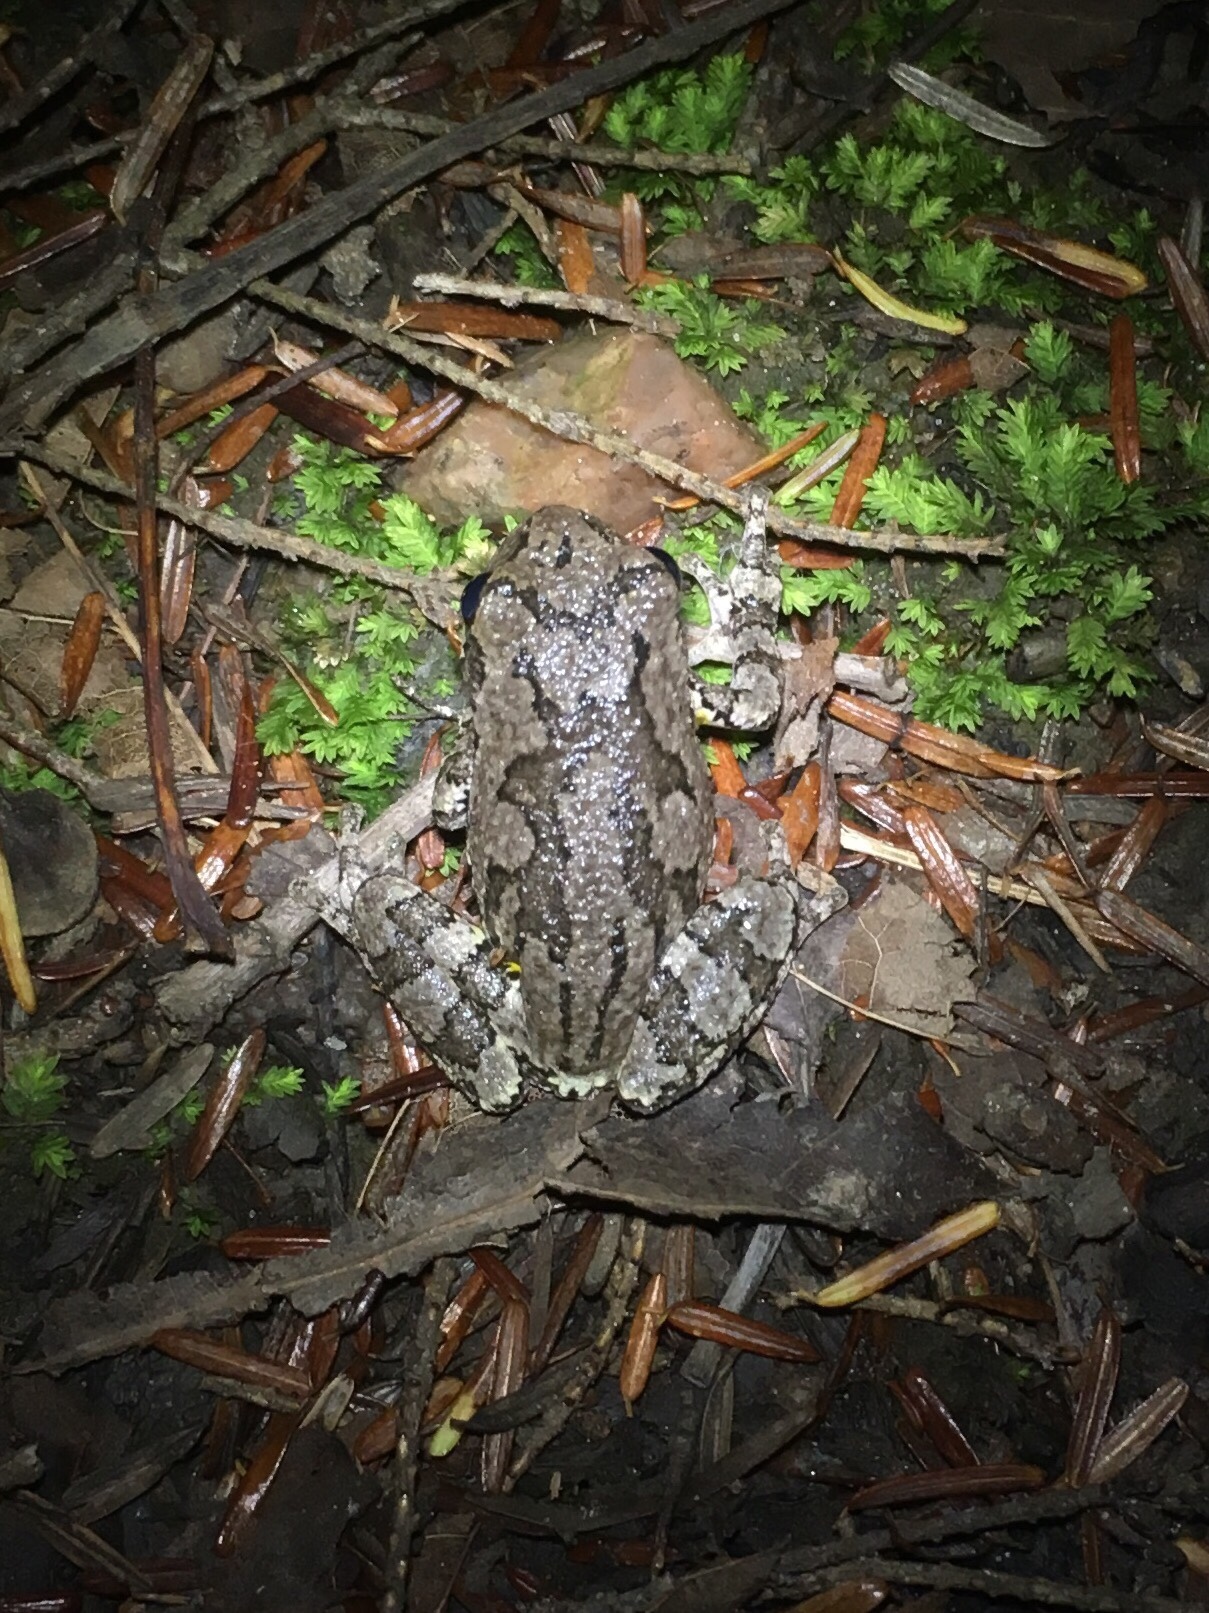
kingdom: Animalia
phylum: Chordata
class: Amphibia
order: Anura
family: Hylidae
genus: Dryophytes
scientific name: Dryophytes versicolor
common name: Gray treefrog
